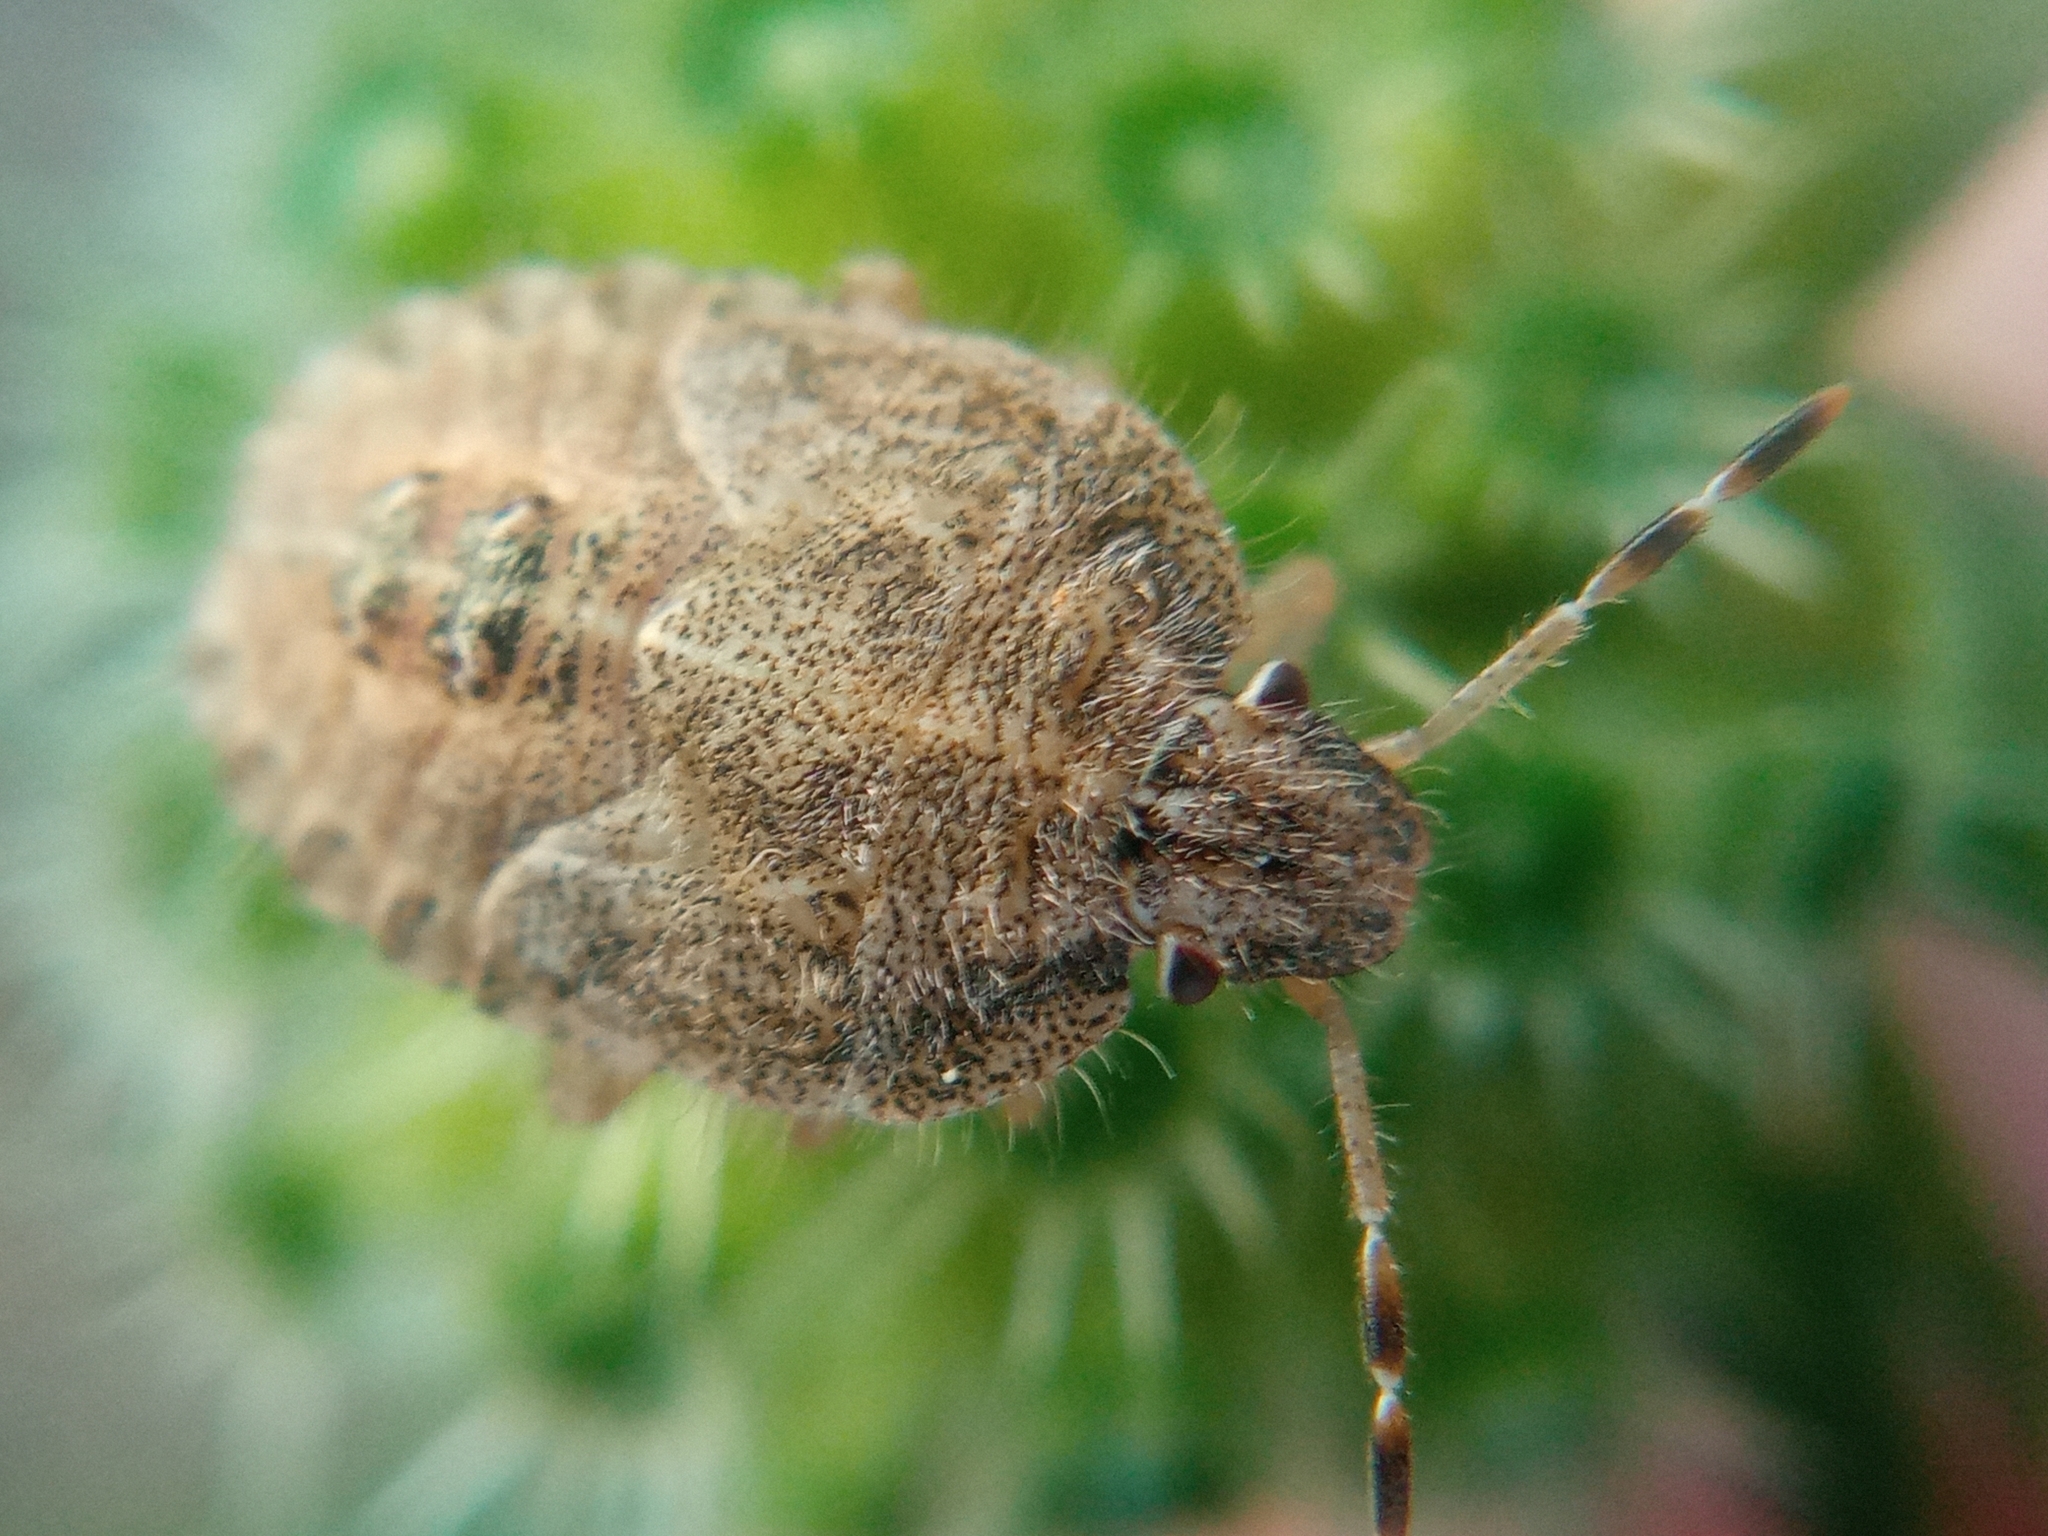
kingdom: Animalia
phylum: Arthropoda
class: Insecta
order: Hemiptera
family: Pentatomidae
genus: Dolycoris
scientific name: Dolycoris baccarum
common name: Sloe bug
